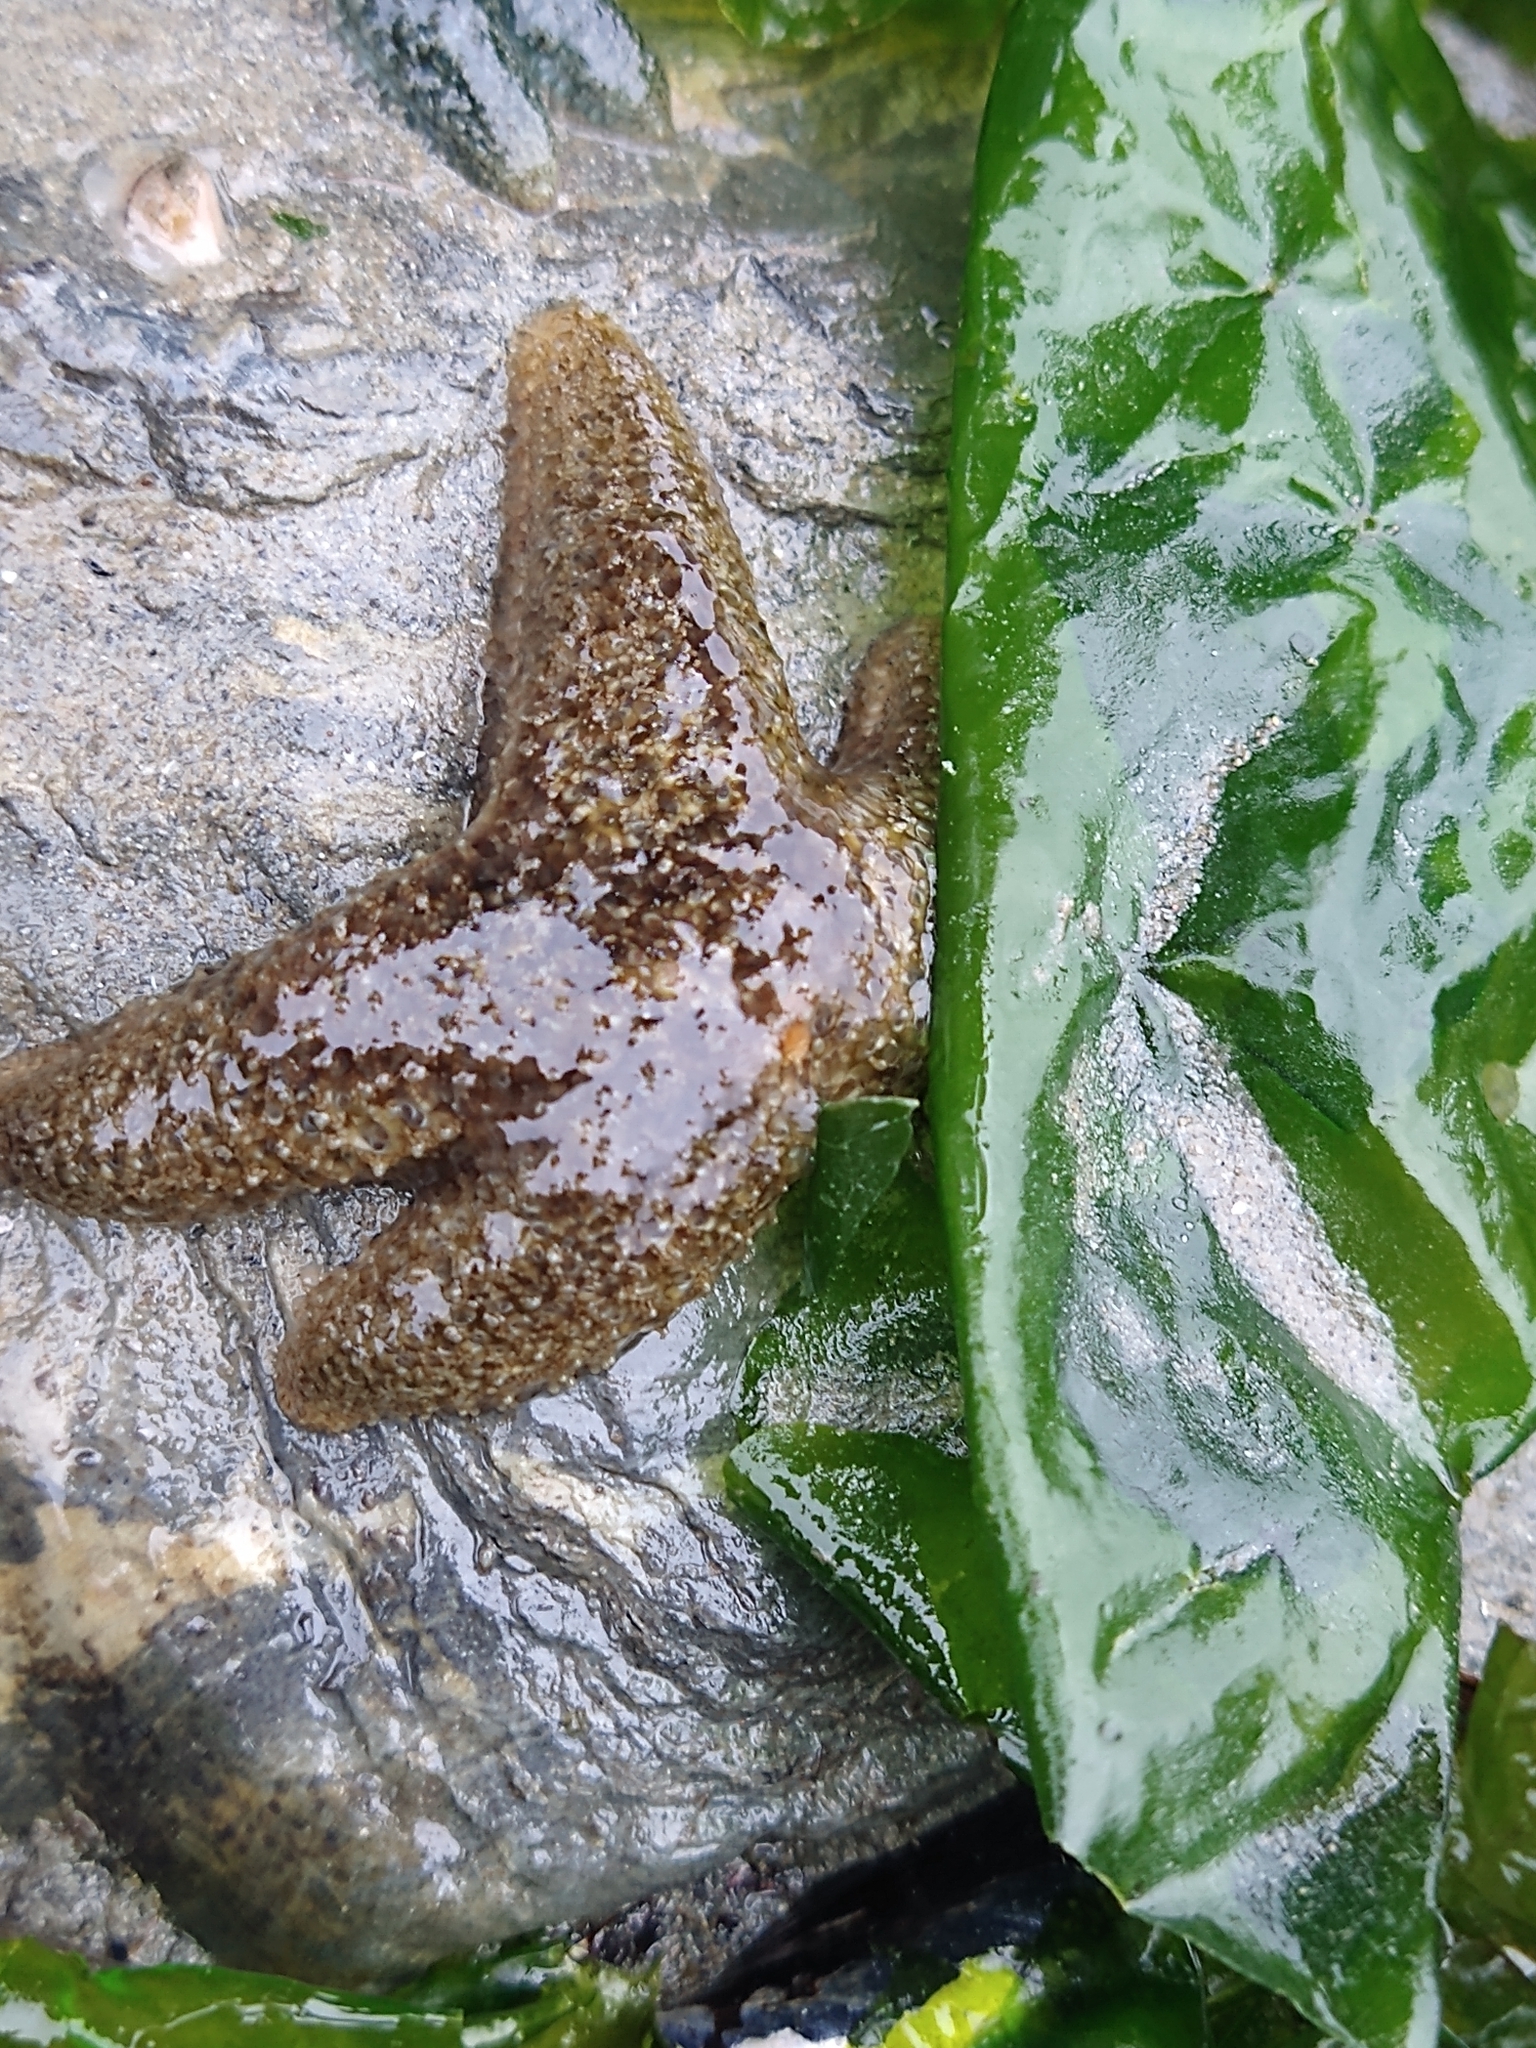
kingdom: Animalia
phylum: Echinodermata
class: Asteroidea
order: Forcipulatida
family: Asteriidae
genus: Anasterias
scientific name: Anasterias antarctica
